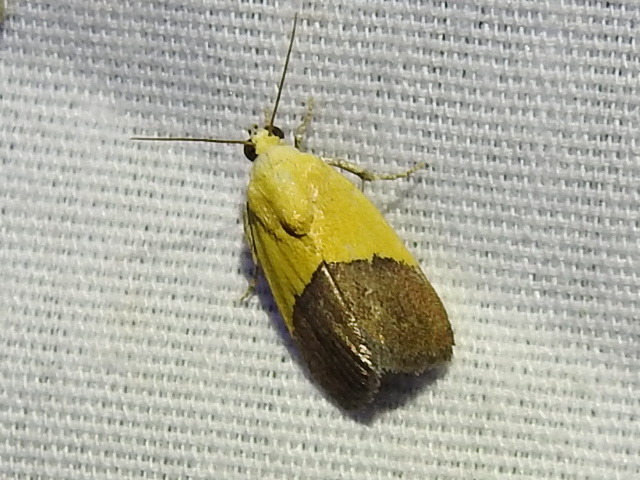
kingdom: Animalia
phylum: Arthropoda
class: Insecta
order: Lepidoptera
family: Noctuidae
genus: Acontia
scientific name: Acontia semiflava
